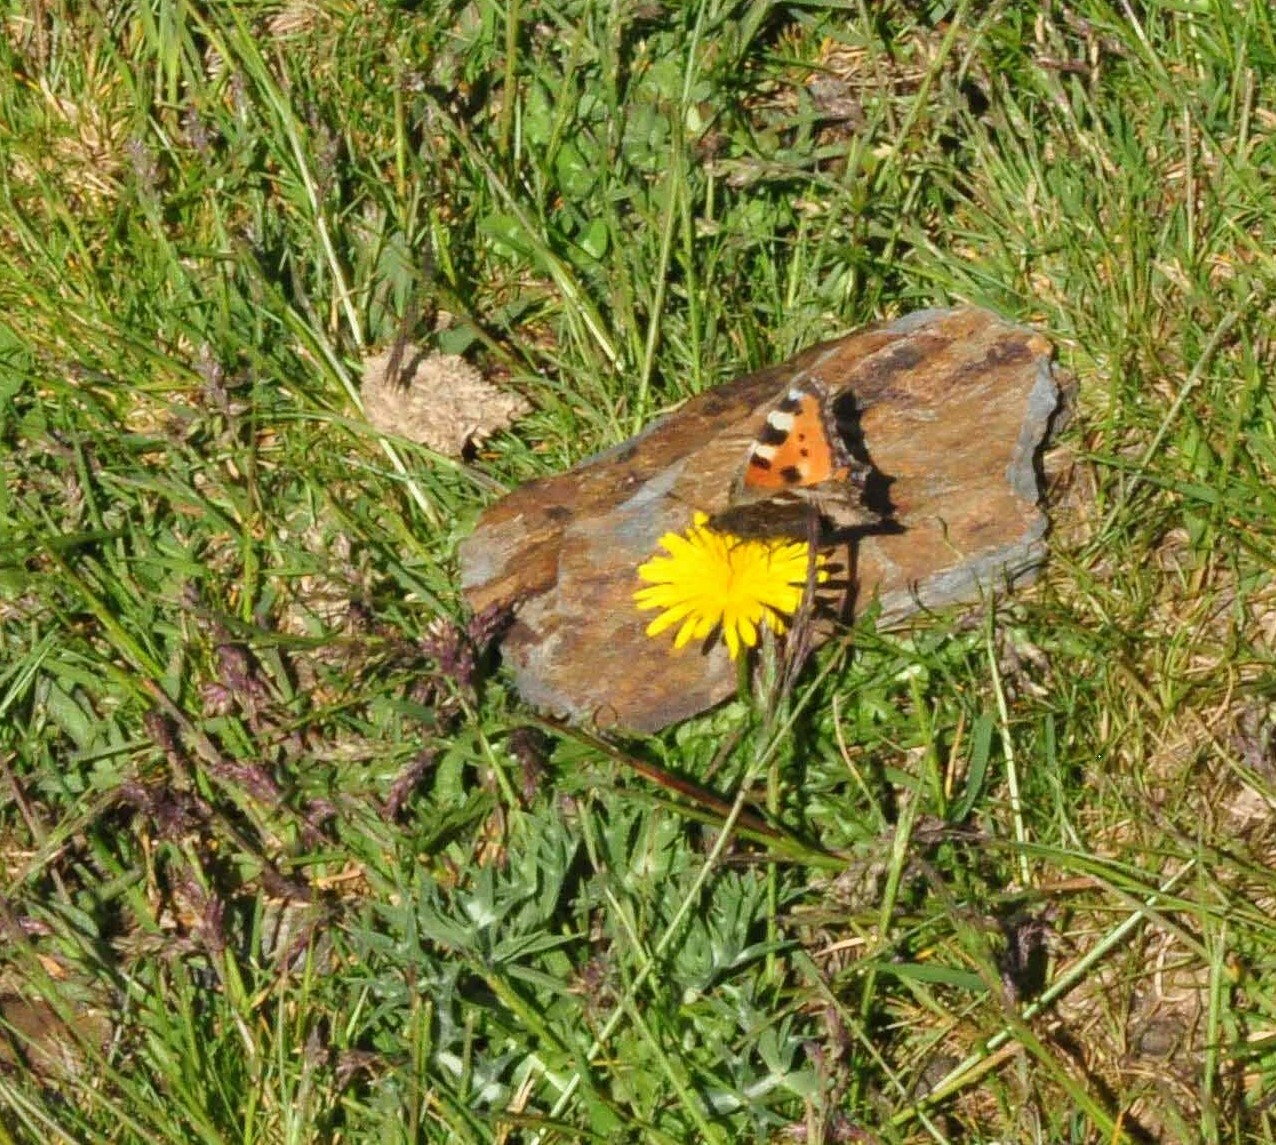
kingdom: Animalia
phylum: Arthropoda
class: Insecta
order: Lepidoptera
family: Nymphalidae
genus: Aglais
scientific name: Aglais urticae
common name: Small tortoiseshell
